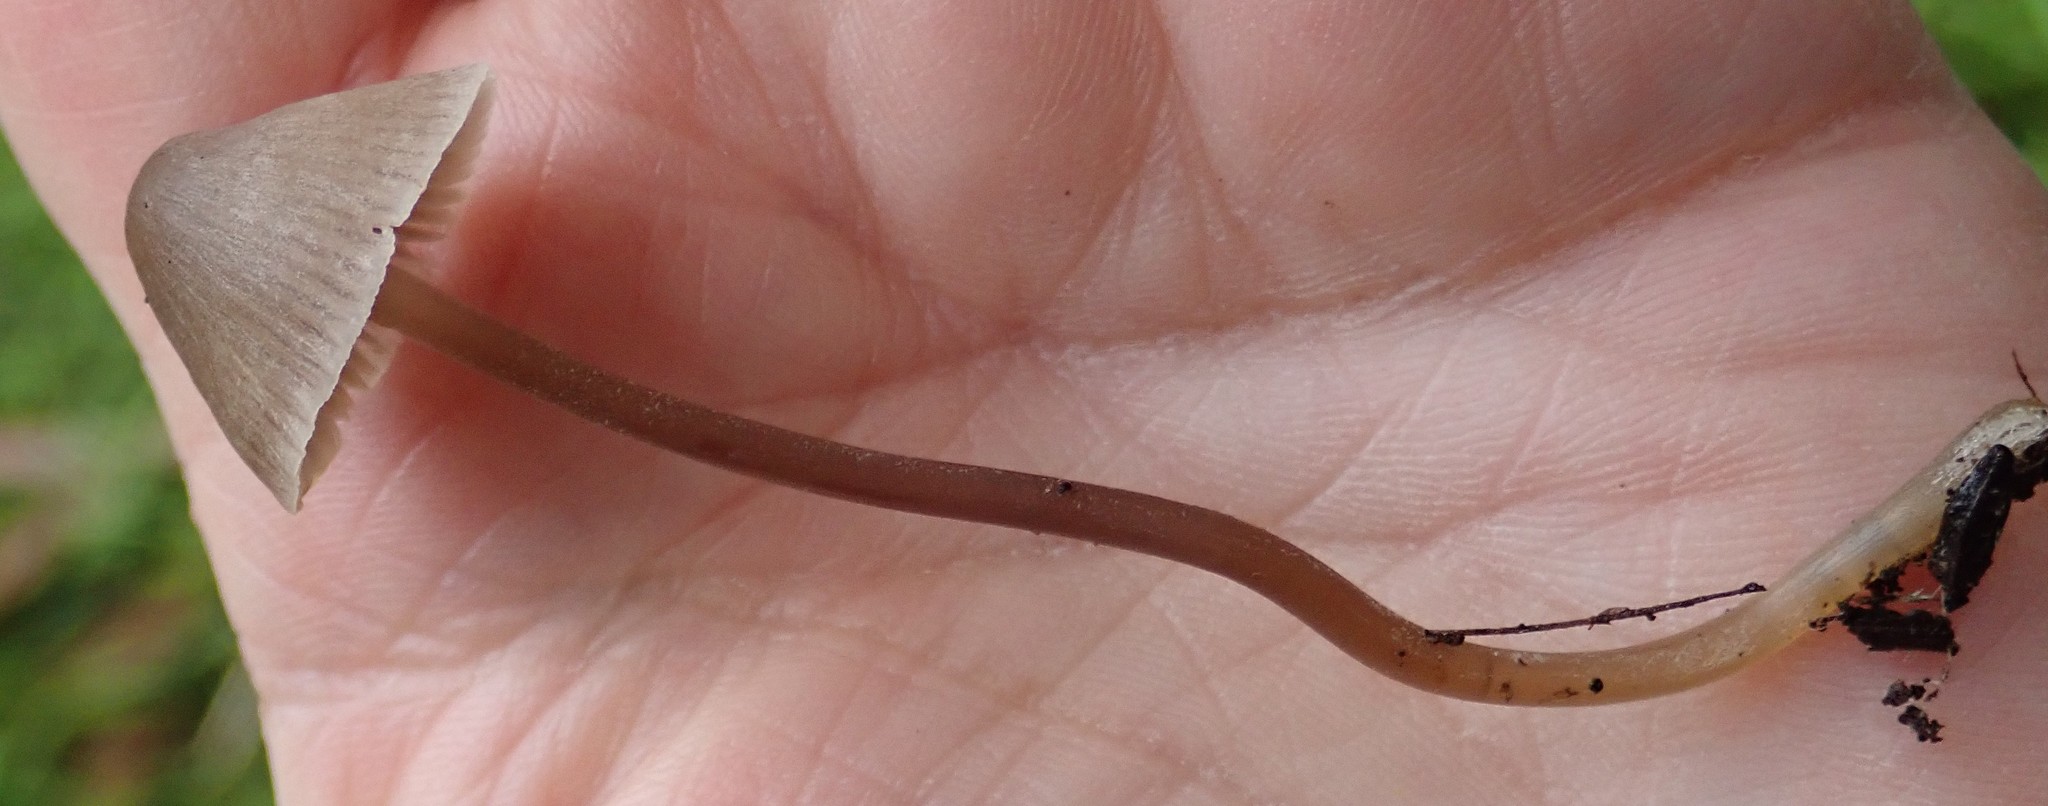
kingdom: Fungi
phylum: Basidiomycota
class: Agaricomycetes
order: Agaricales
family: Mycenaceae
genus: Mycena
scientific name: Mycena leptocephala
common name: Nitrous bonnet
